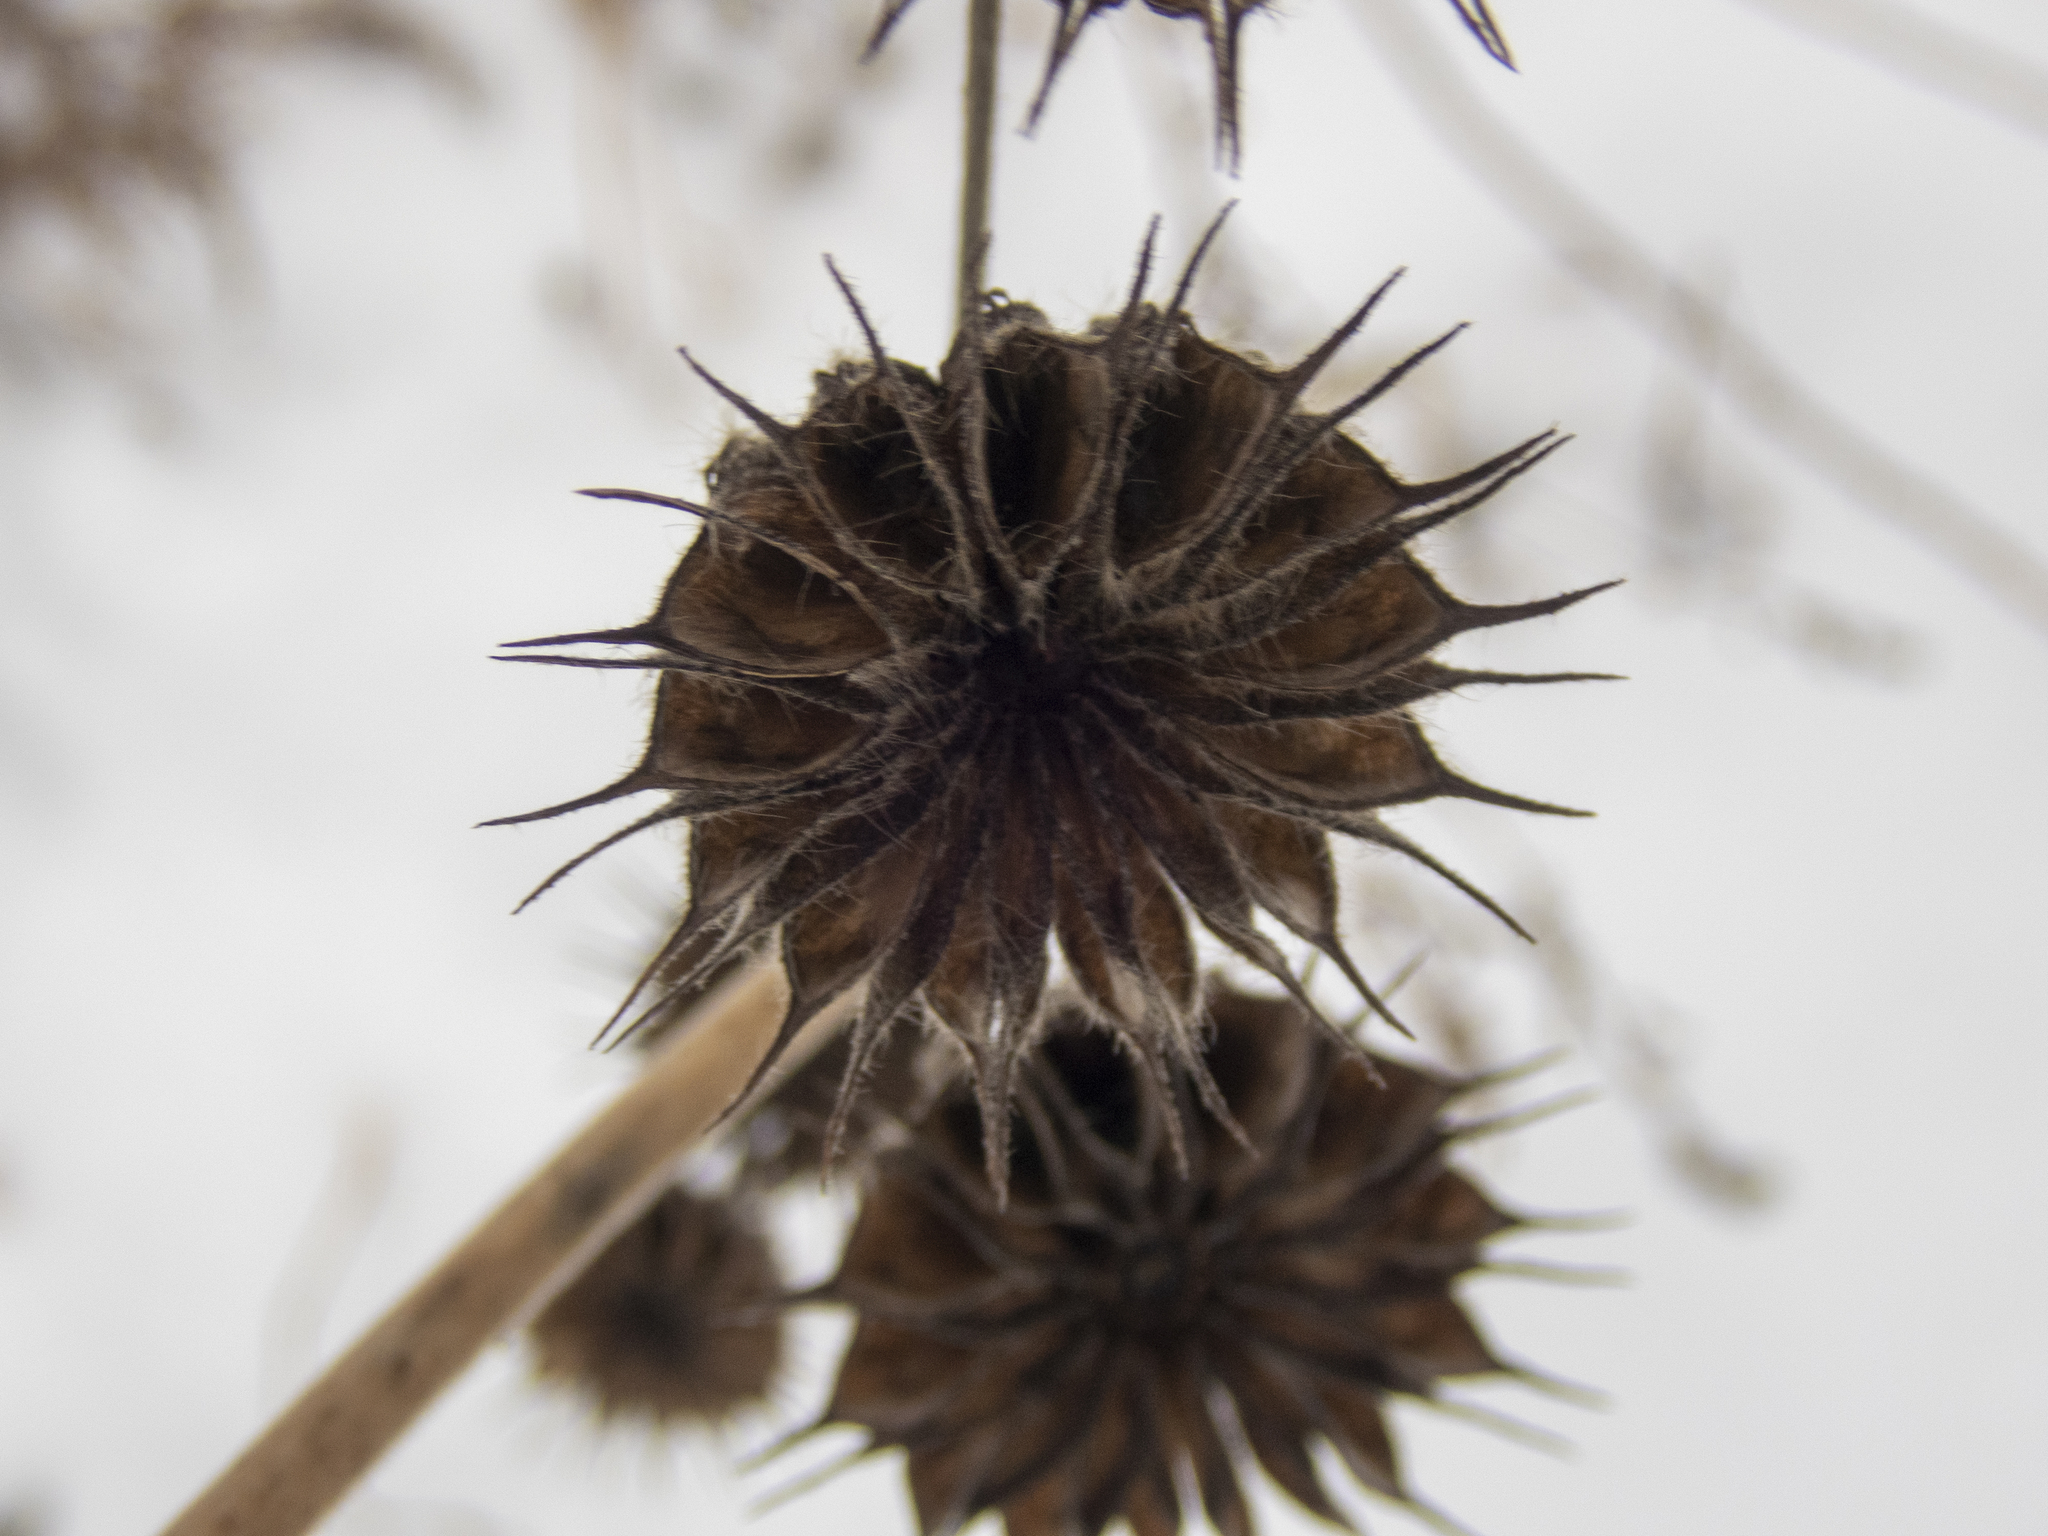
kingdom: Plantae
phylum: Tracheophyta
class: Magnoliopsida
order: Malvales
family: Malvaceae
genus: Abutilon
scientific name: Abutilon theophrasti
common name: Velvetleaf
